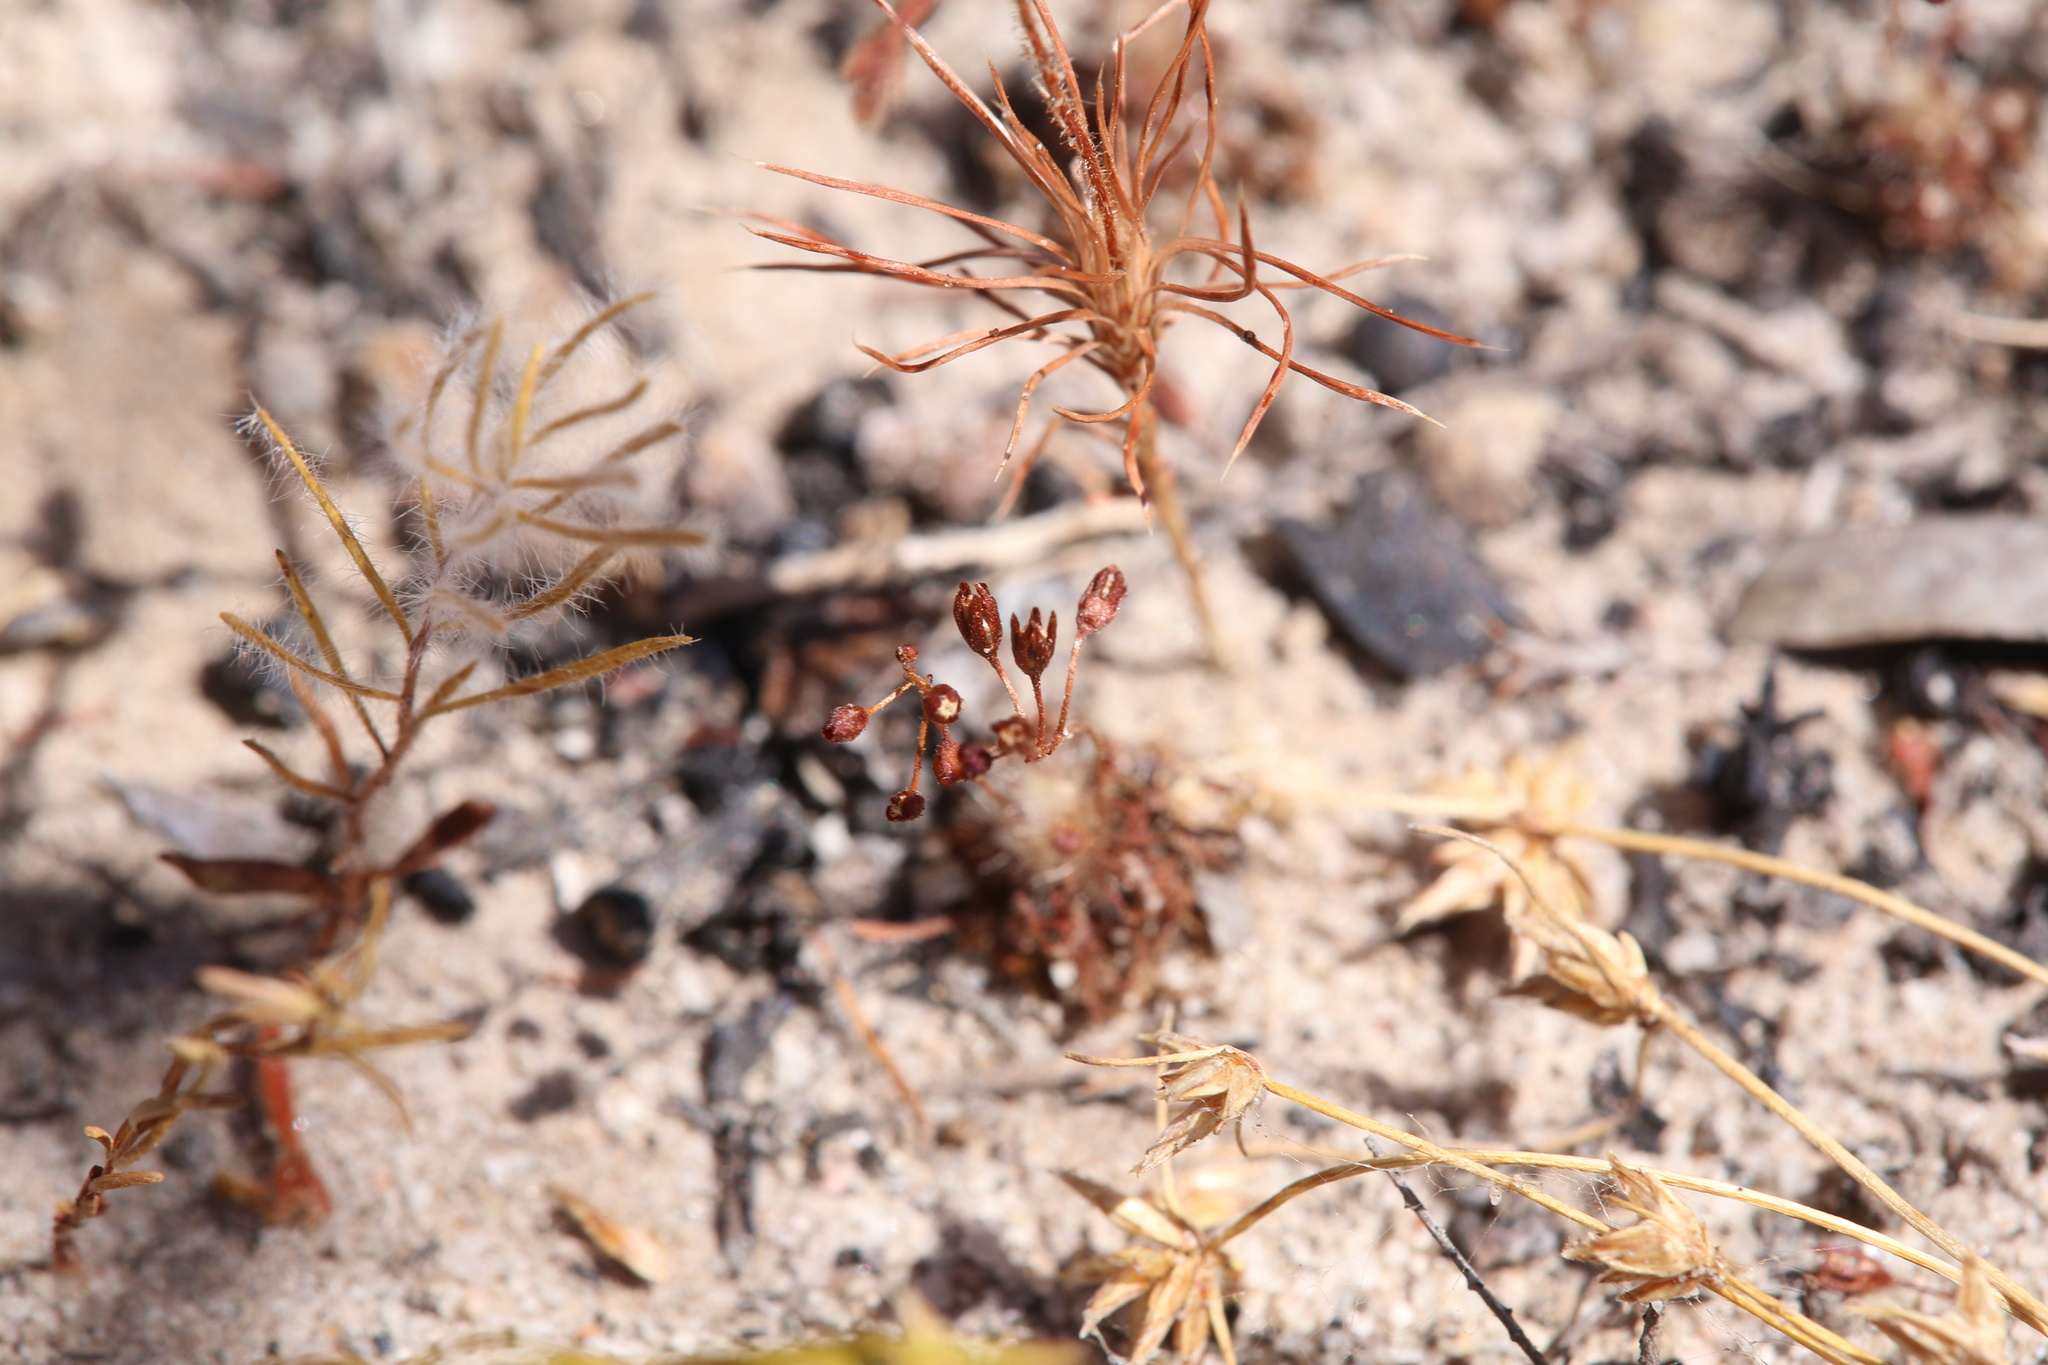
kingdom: Plantae
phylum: Tracheophyta
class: Magnoliopsida
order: Caryophyllales
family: Droseraceae
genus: Drosera
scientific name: Drosera leucostigma
